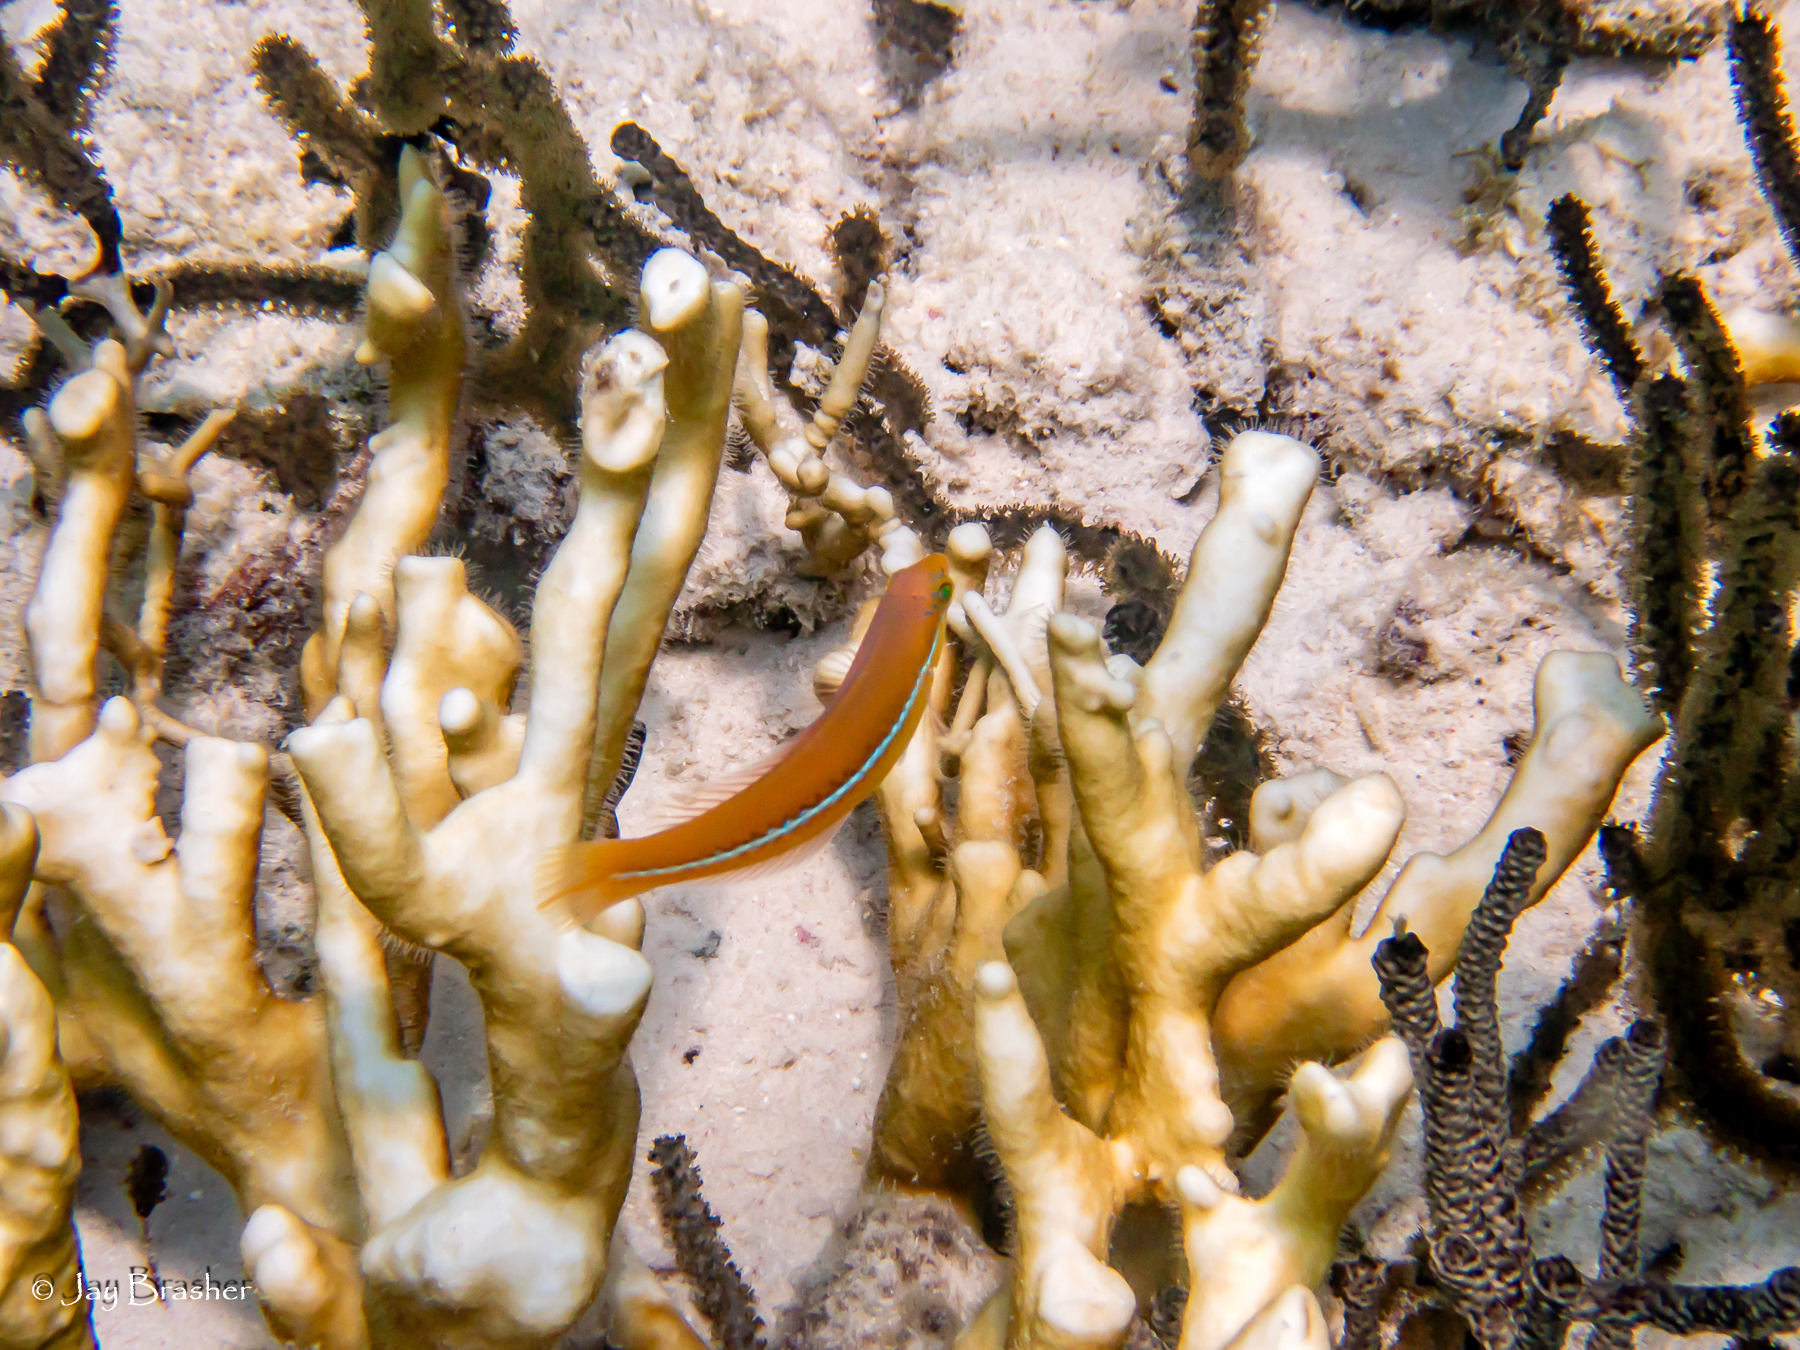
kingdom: Animalia
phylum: Cnidaria
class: Hydrozoa
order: Anthoathecata
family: Milleporidae
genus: Millepora
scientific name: Millepora alcicornis
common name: Branching fire coral
